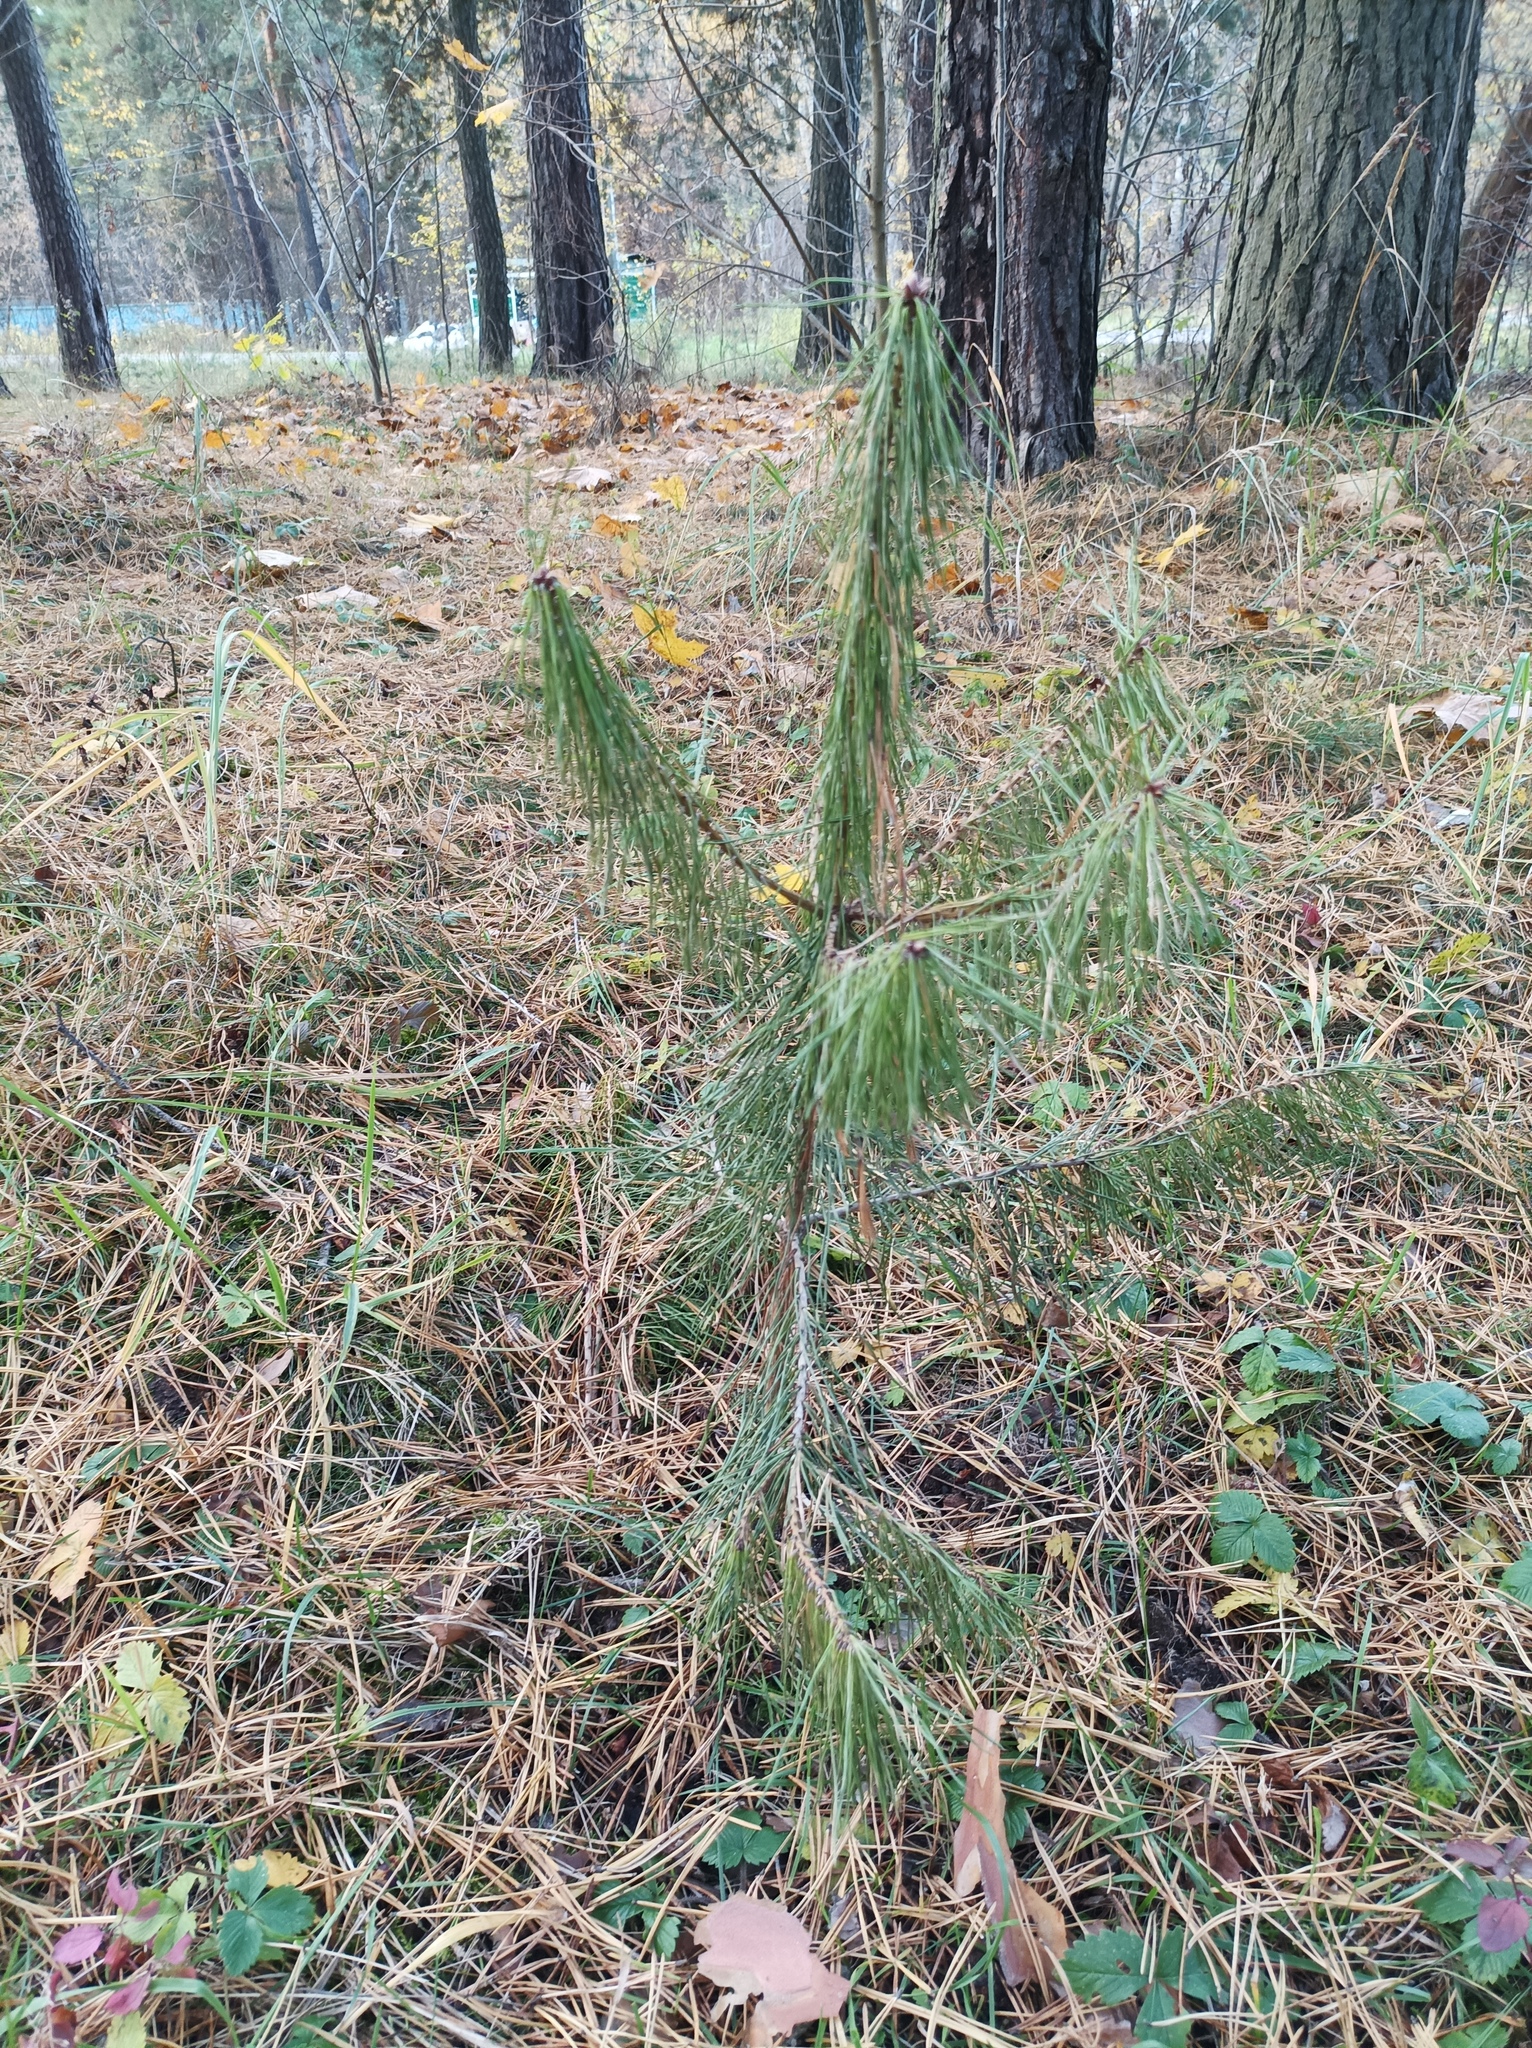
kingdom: Plantae
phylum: Tracheophyta
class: Pinopsida
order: Pinales
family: Pinaceae
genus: Pinus
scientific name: Pinus sylvestris
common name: Scots pine
